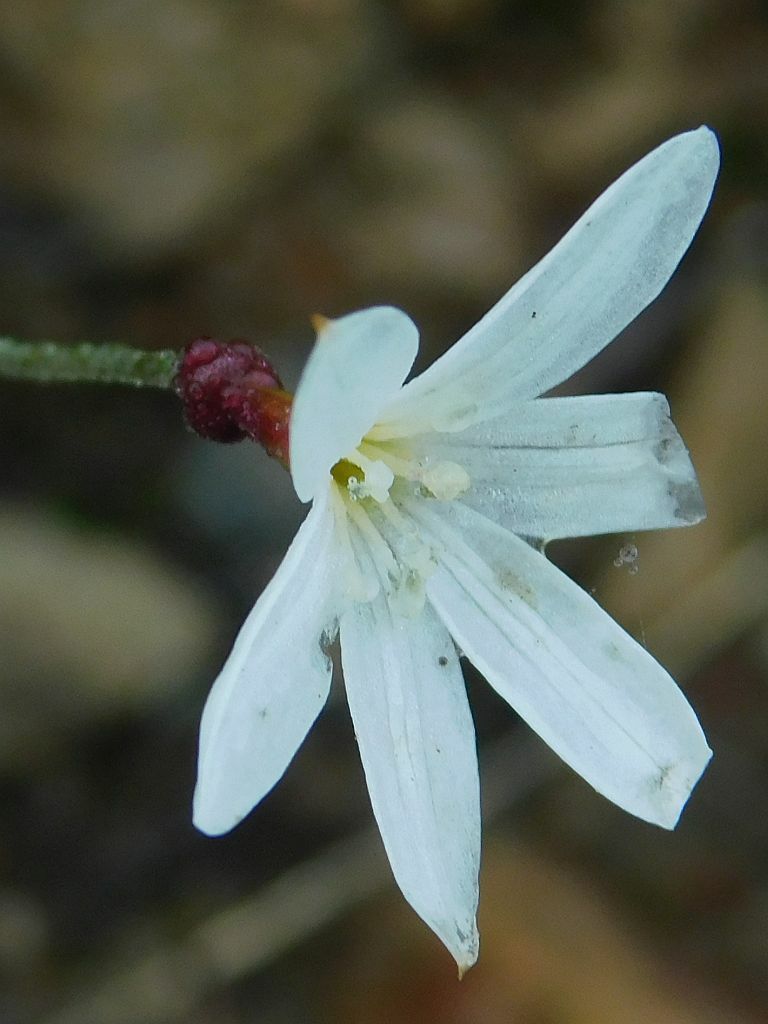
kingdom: Plantae
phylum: Tracheophyta
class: Liliopsida
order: Asparagales
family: Amaryllidaceae
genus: Strumaria
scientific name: Strumaria spiralis
